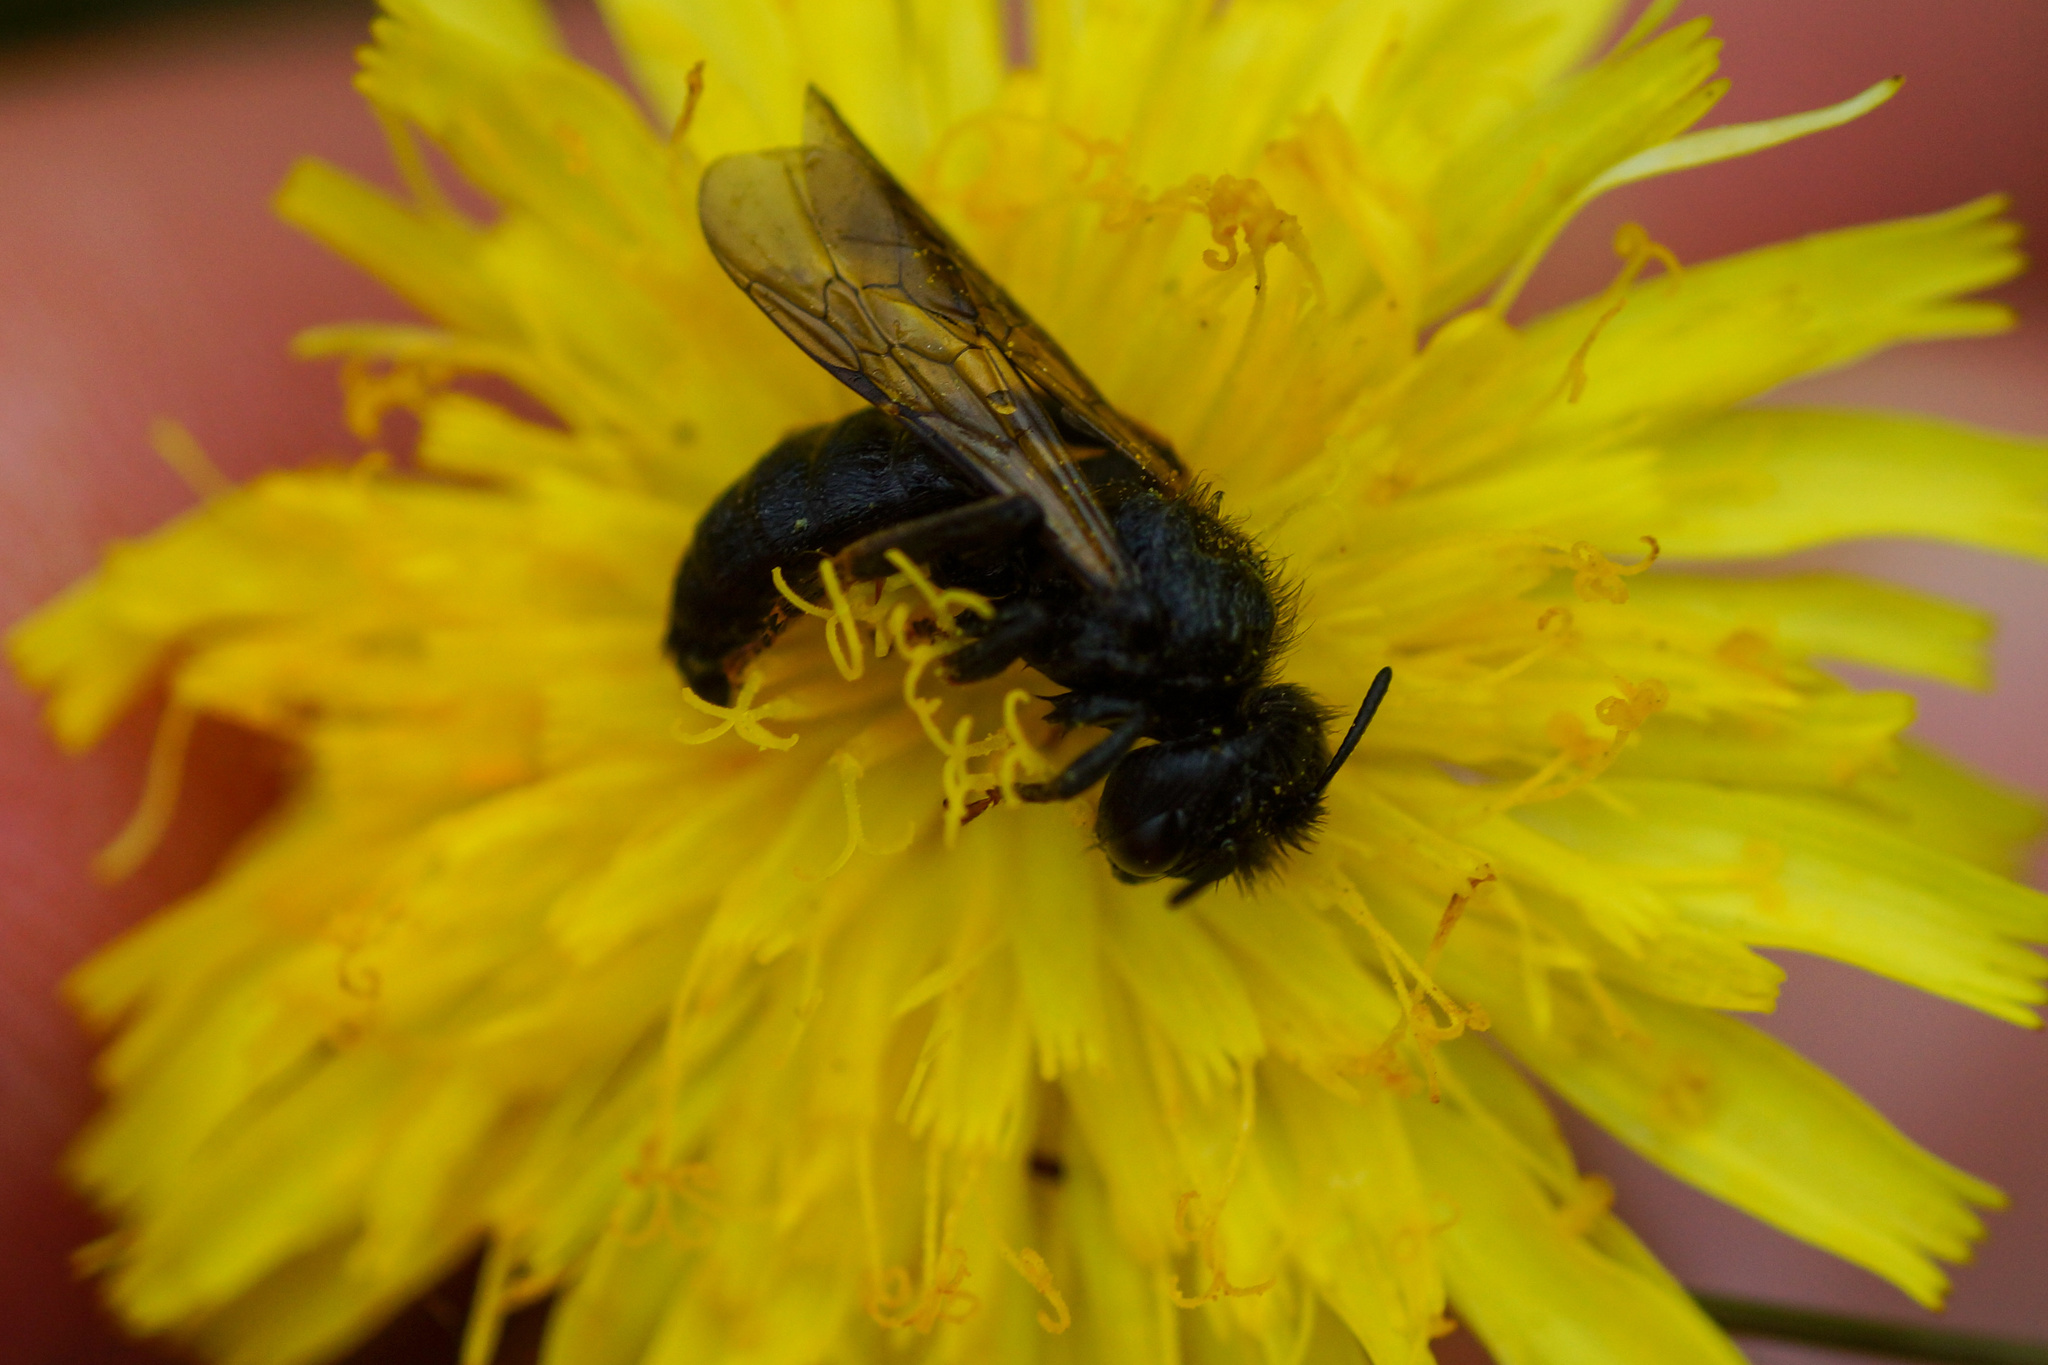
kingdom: Animalia
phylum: Arthropoda
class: Insecta
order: Hymenoptera
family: Andrenidae
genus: Panurgus
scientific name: Panurgus banksianus
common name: Large shaggy bee
